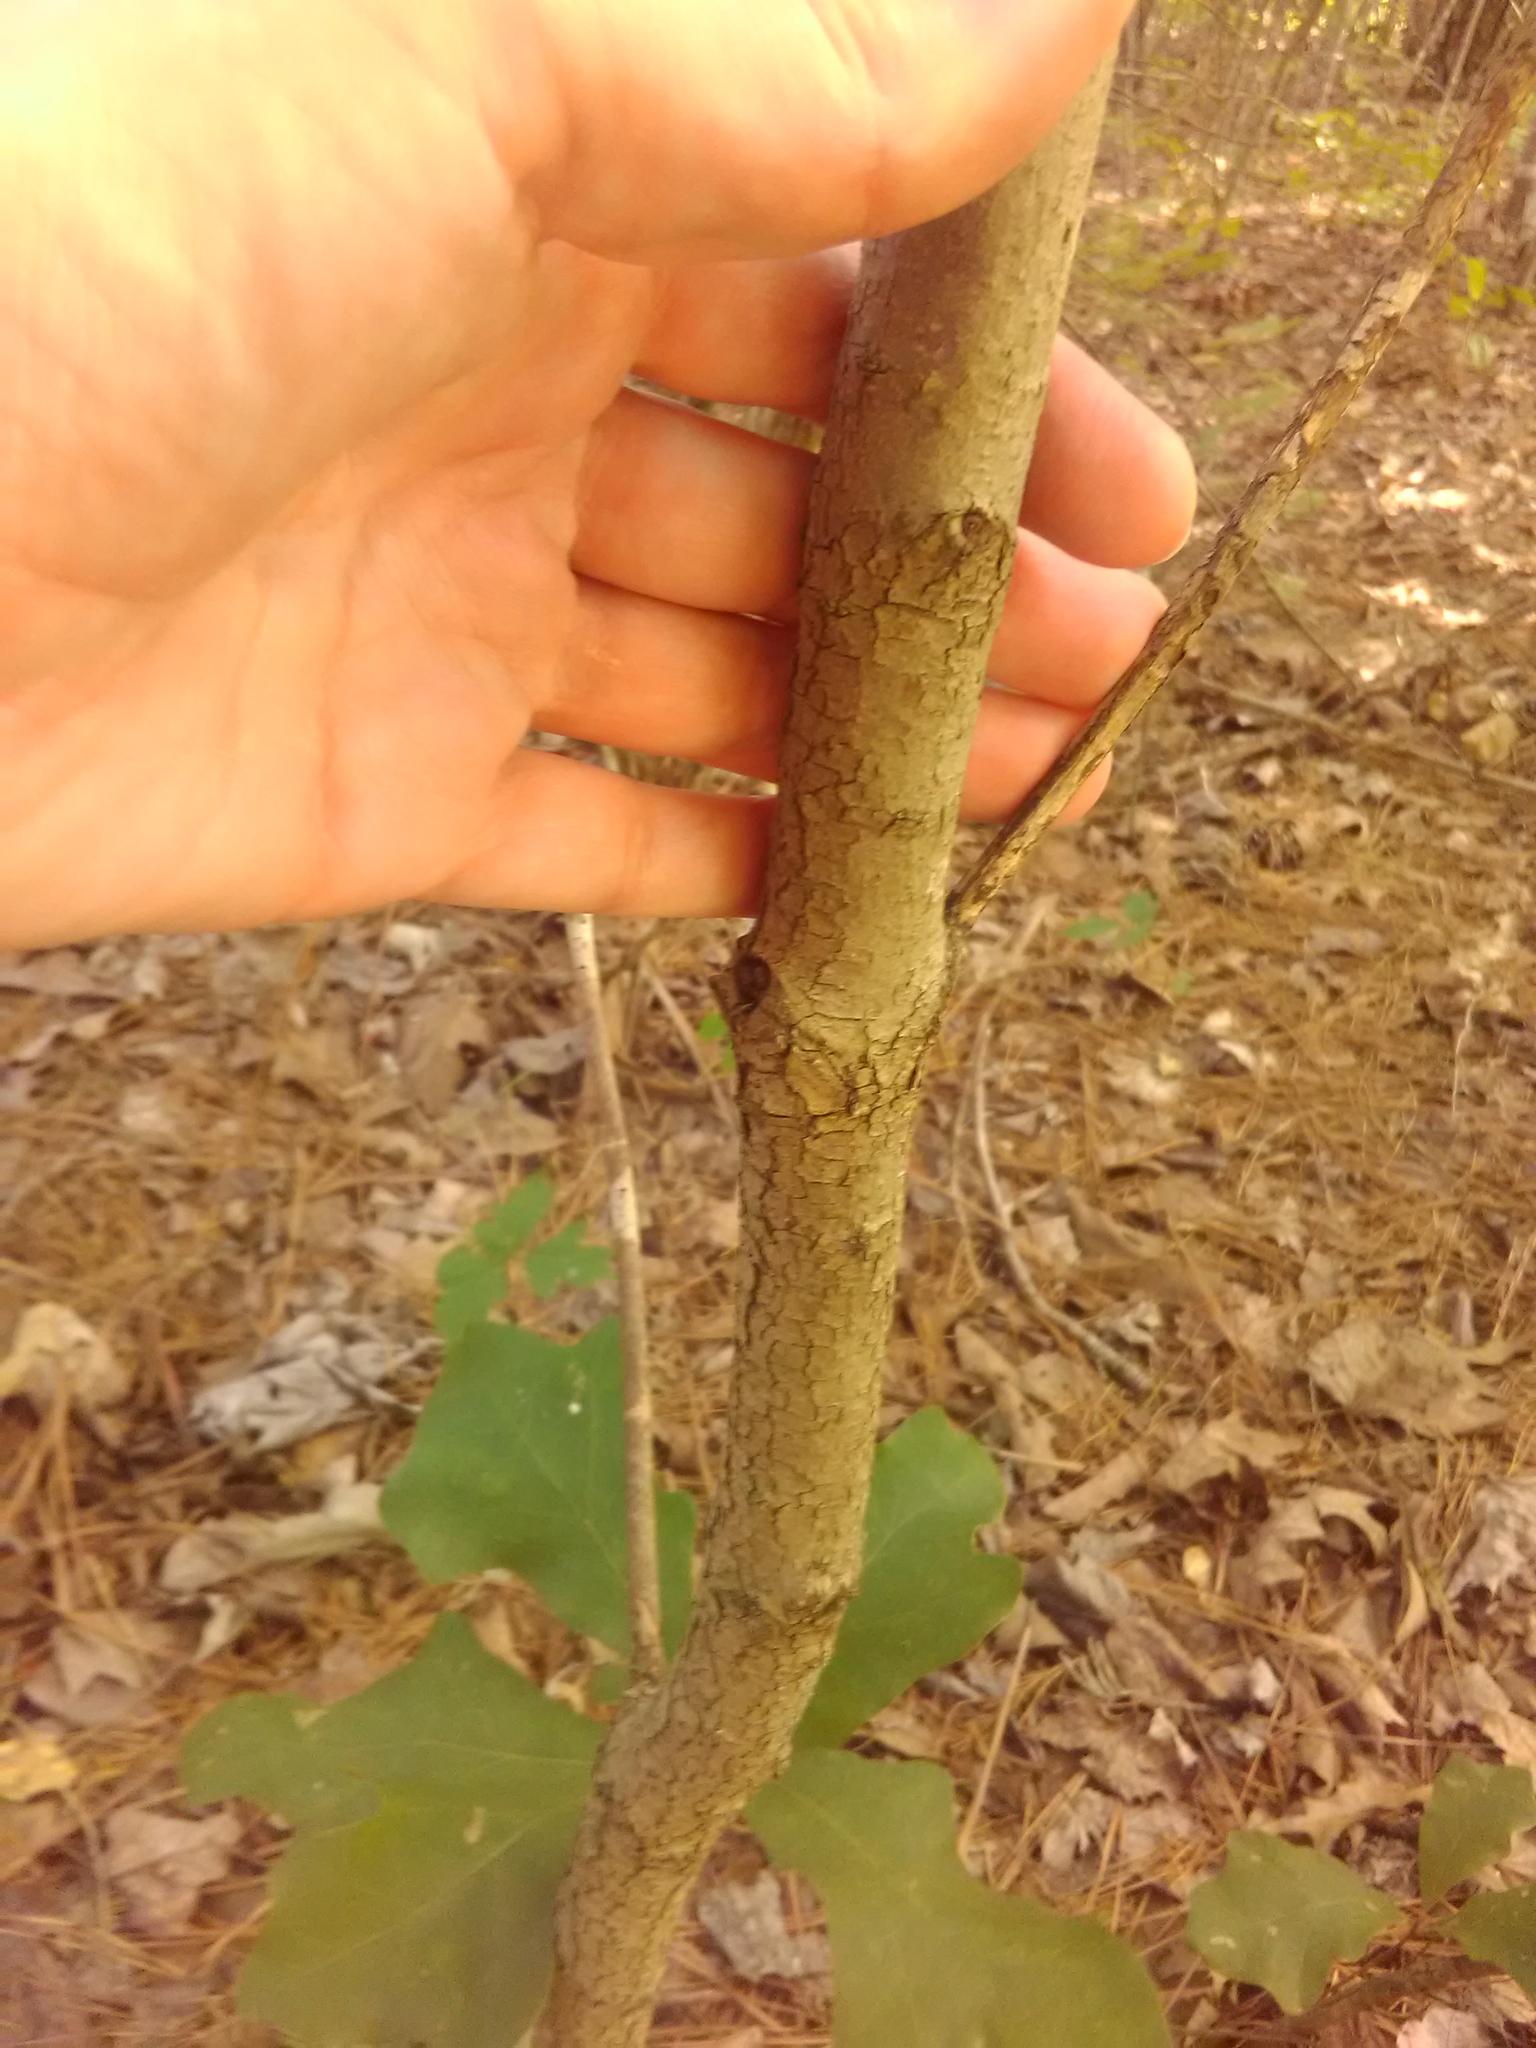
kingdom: Plantae
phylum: Tracheophyta
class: Magnoliopsida
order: Cornales
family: Cornaceae
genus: Cornus
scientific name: Cornus florida
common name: Flowering dogwood
